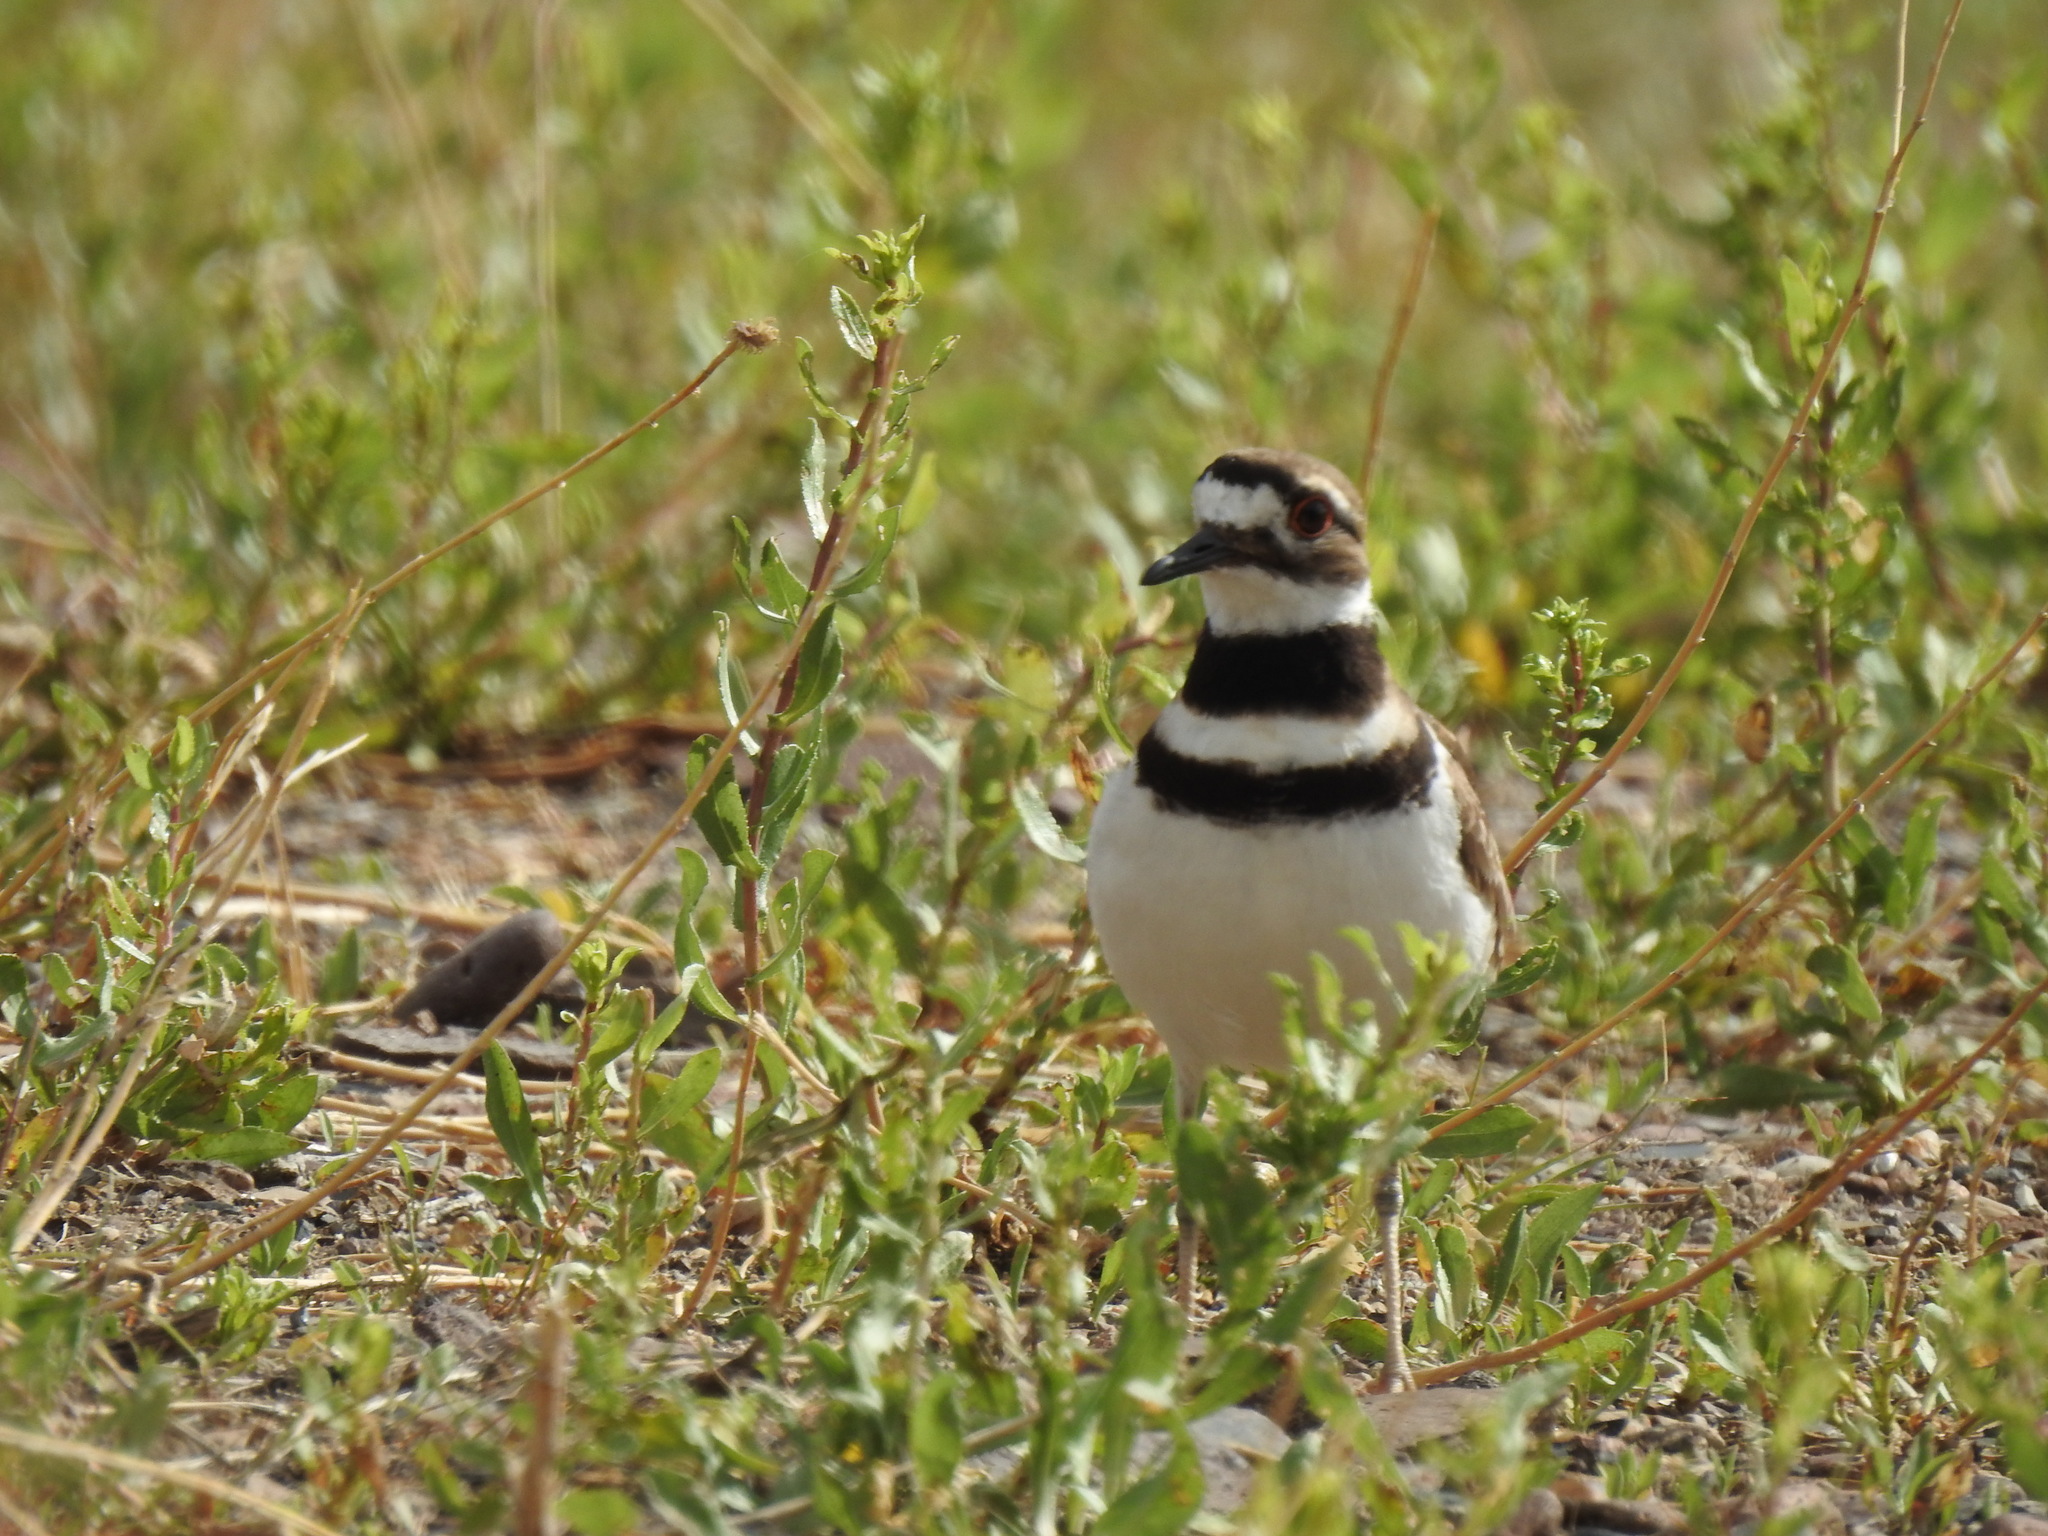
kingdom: Animalia
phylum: Chordata
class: Aves
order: Charadriiformes
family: Charadriidae
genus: Charadrius
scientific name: Charadrius vociferus
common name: Killdeer
